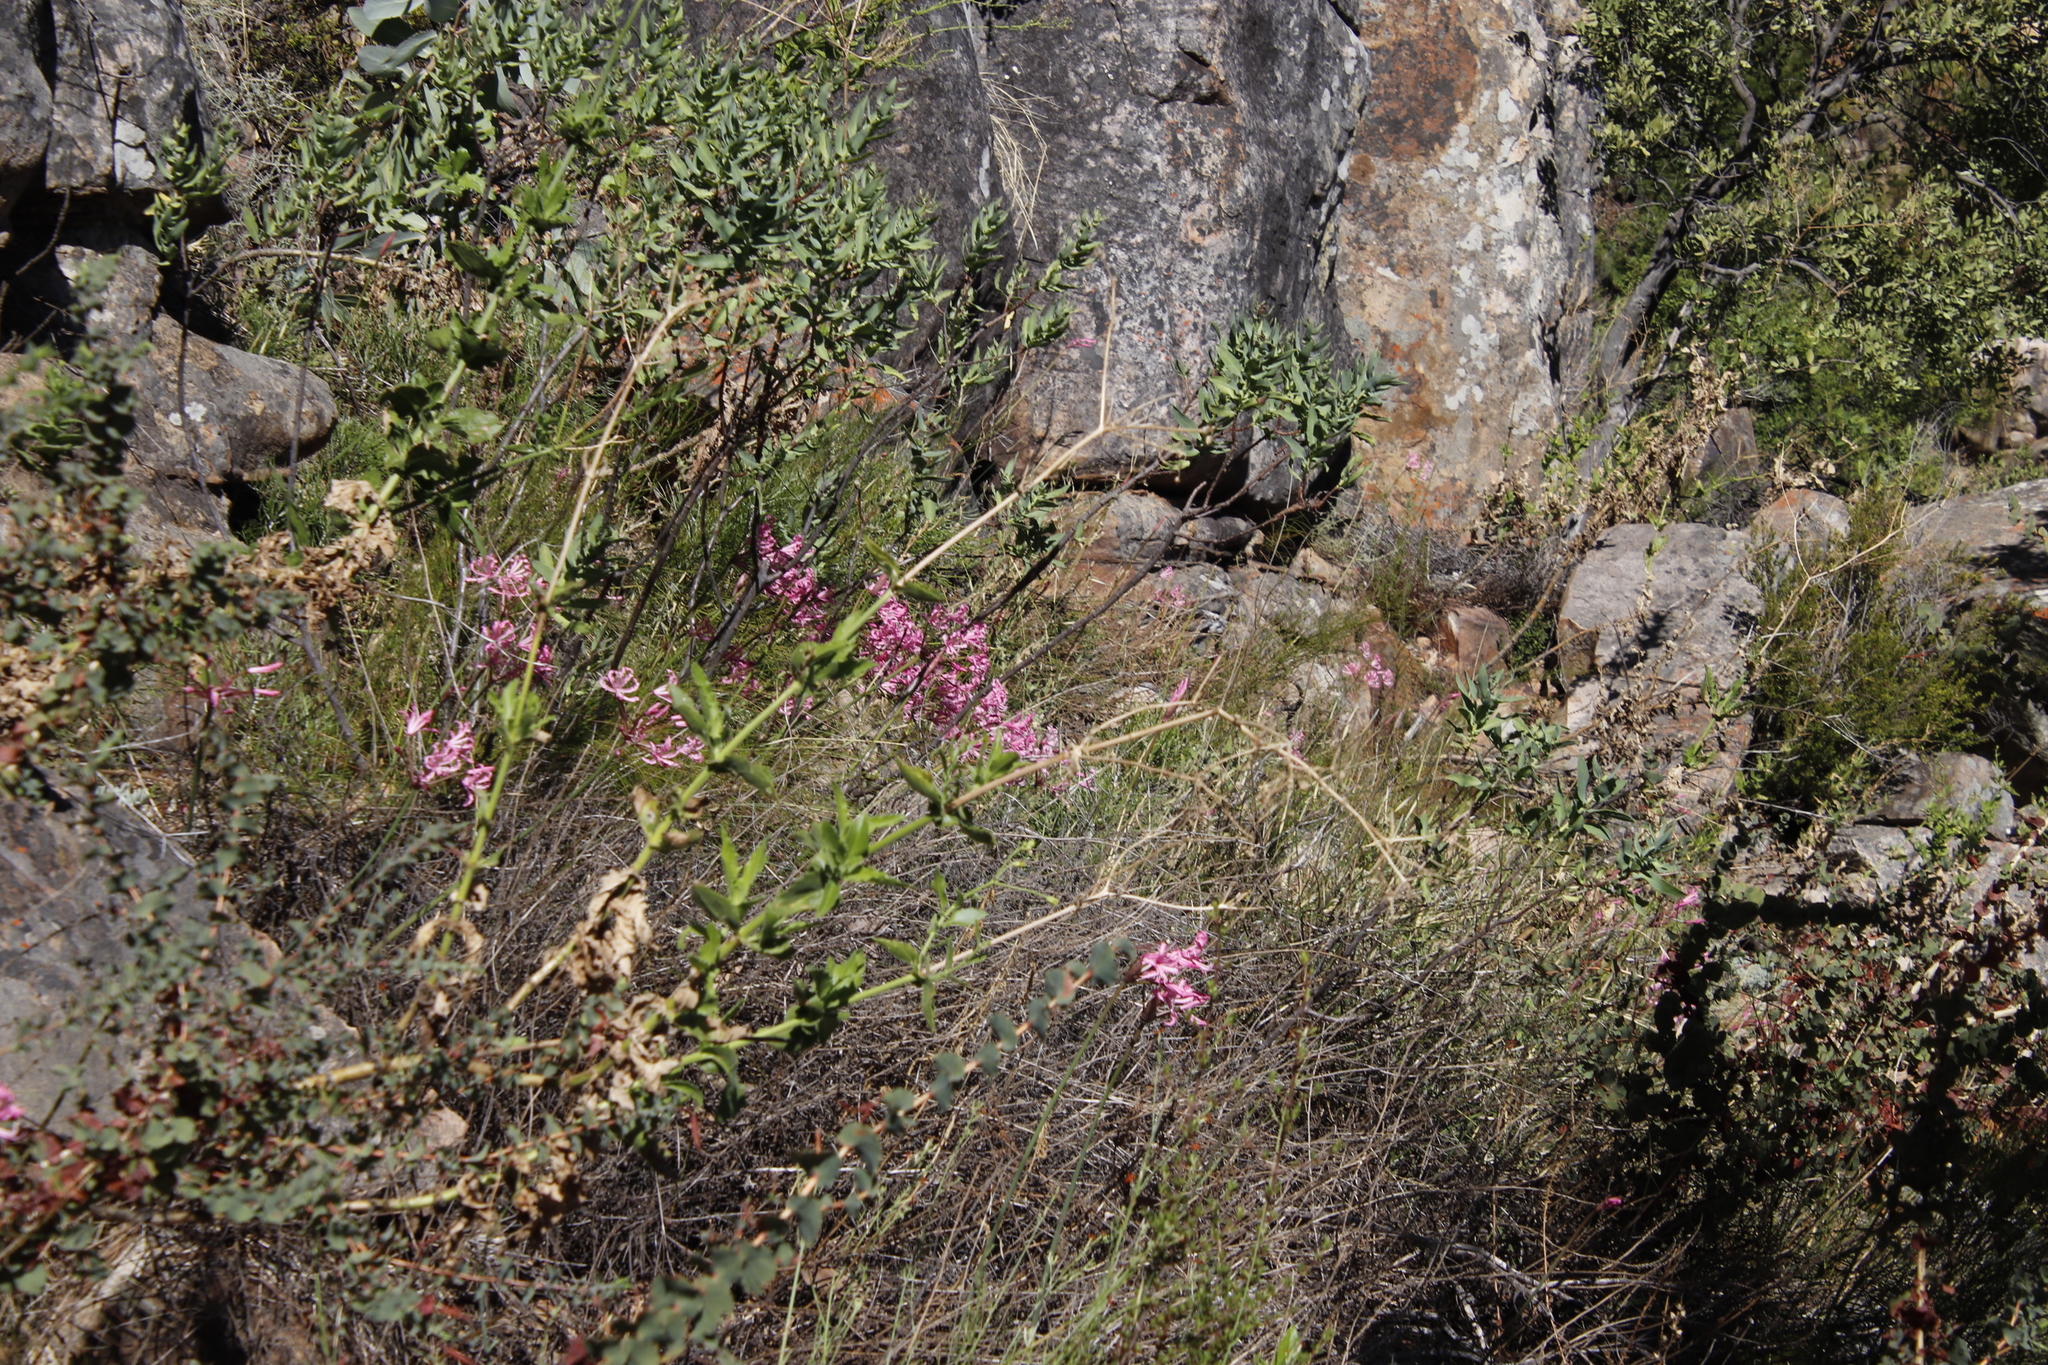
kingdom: Plantae
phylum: Tracheophyta
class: Liliopsida
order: Asparagales
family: Amaryllidaceae
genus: Nerine
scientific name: Nerine humilis
